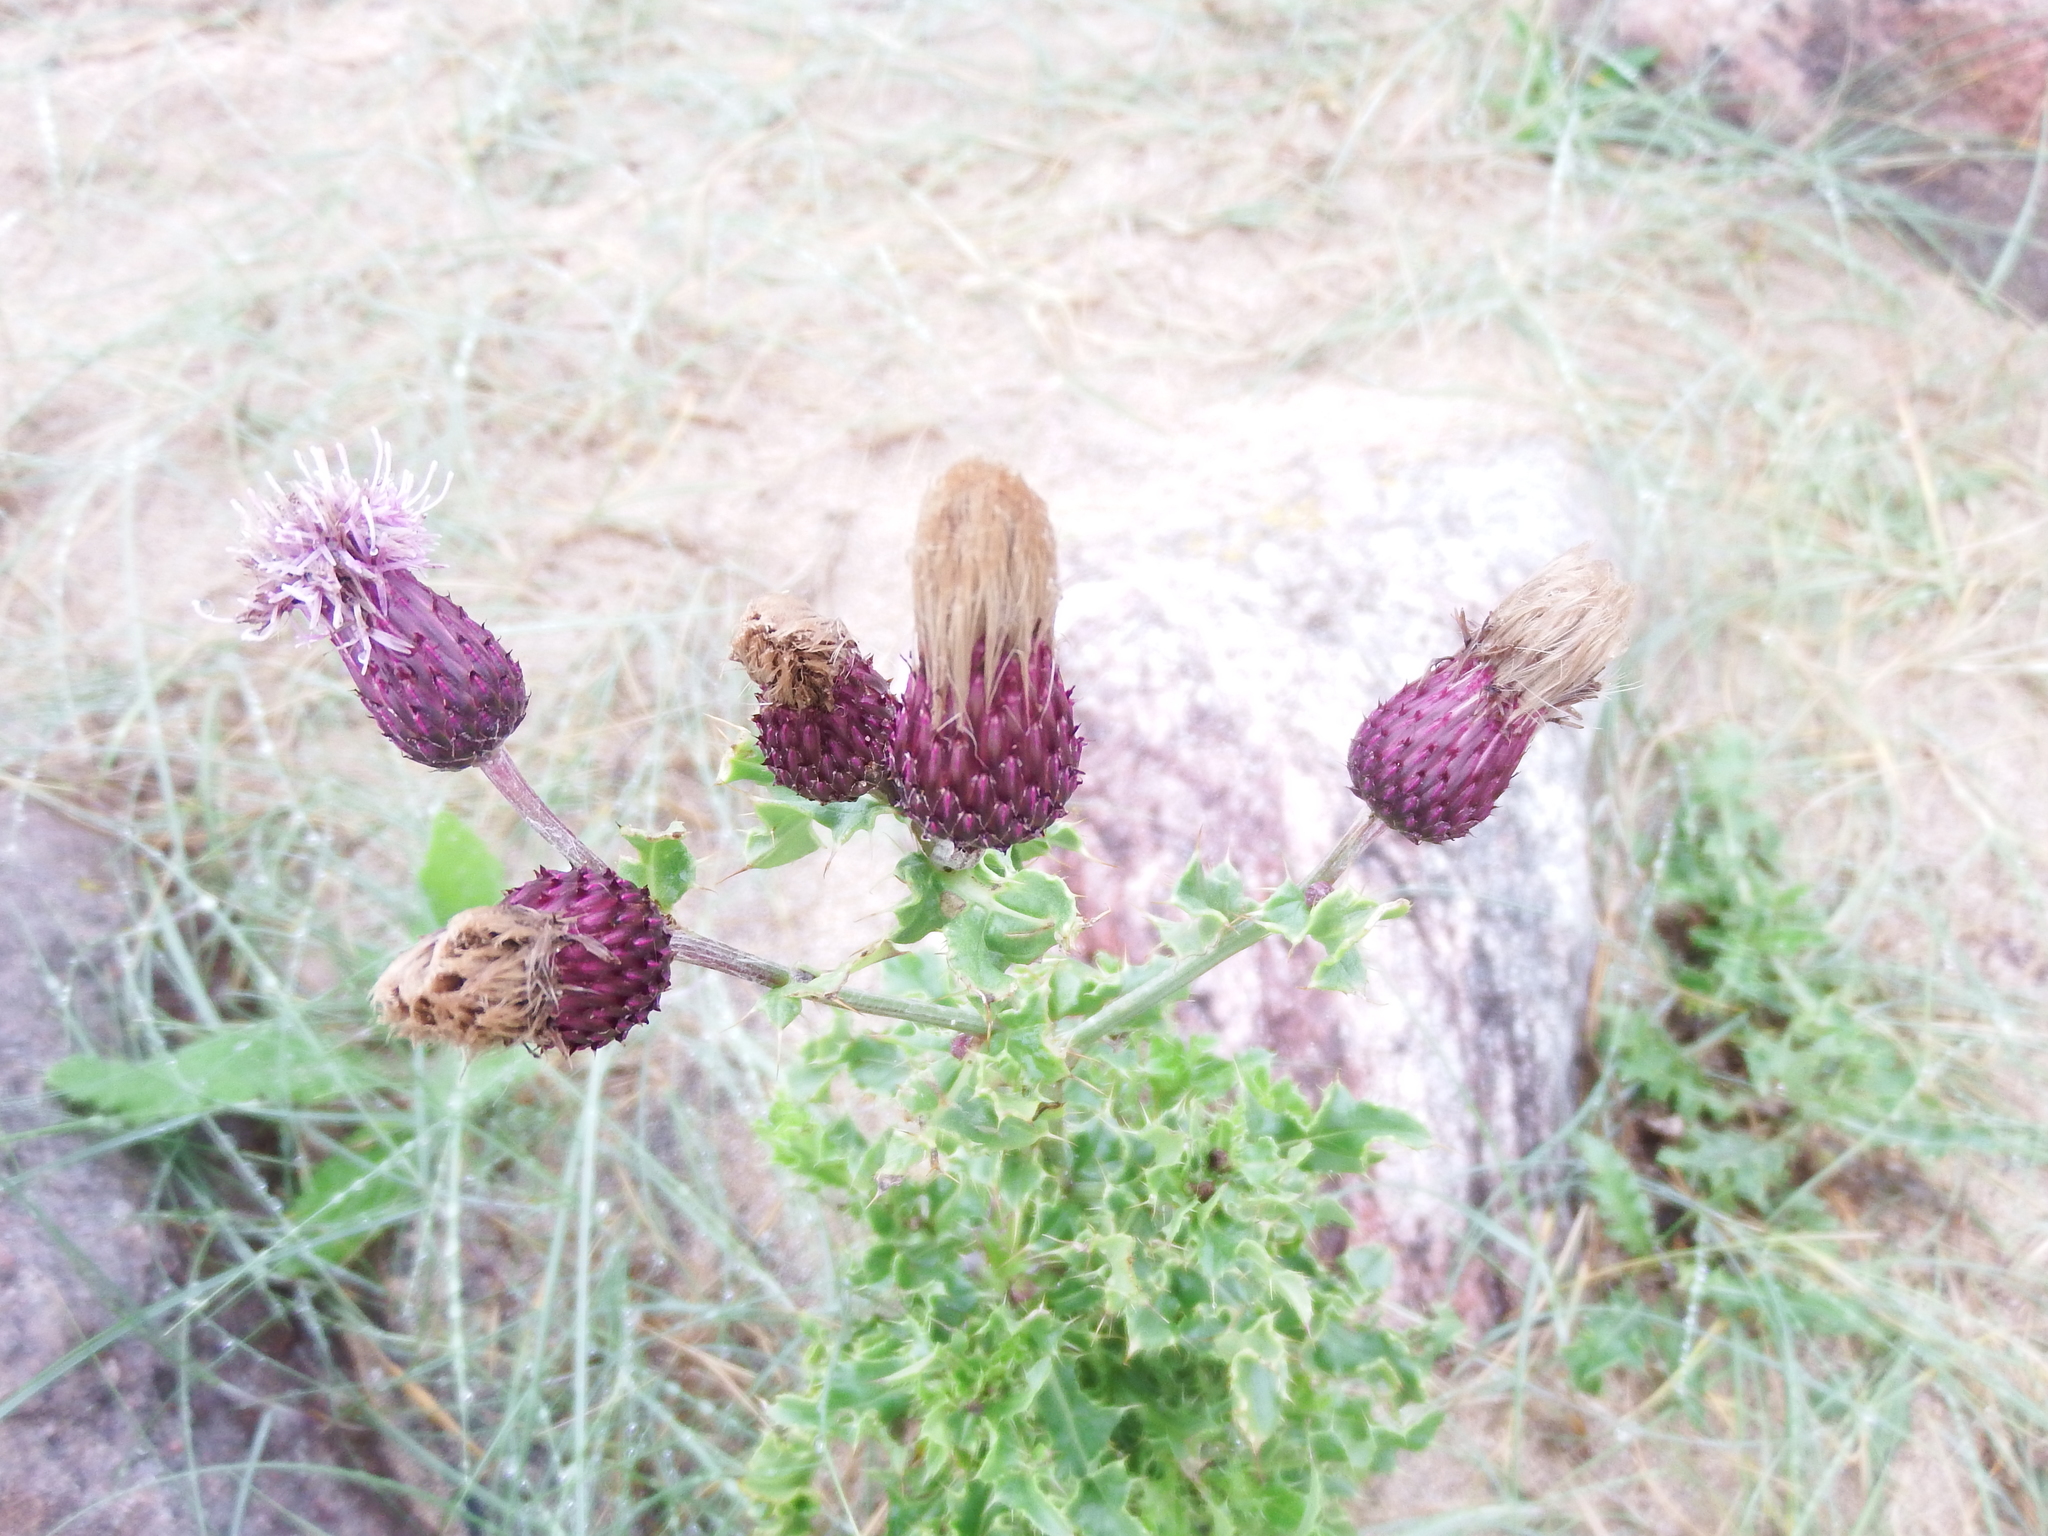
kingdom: Plantae
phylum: Tracheophyta
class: Magnoliopsida
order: Asterales
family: Asteraceae
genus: Cirsium
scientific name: Cirsium arvense
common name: Creeping thistle
